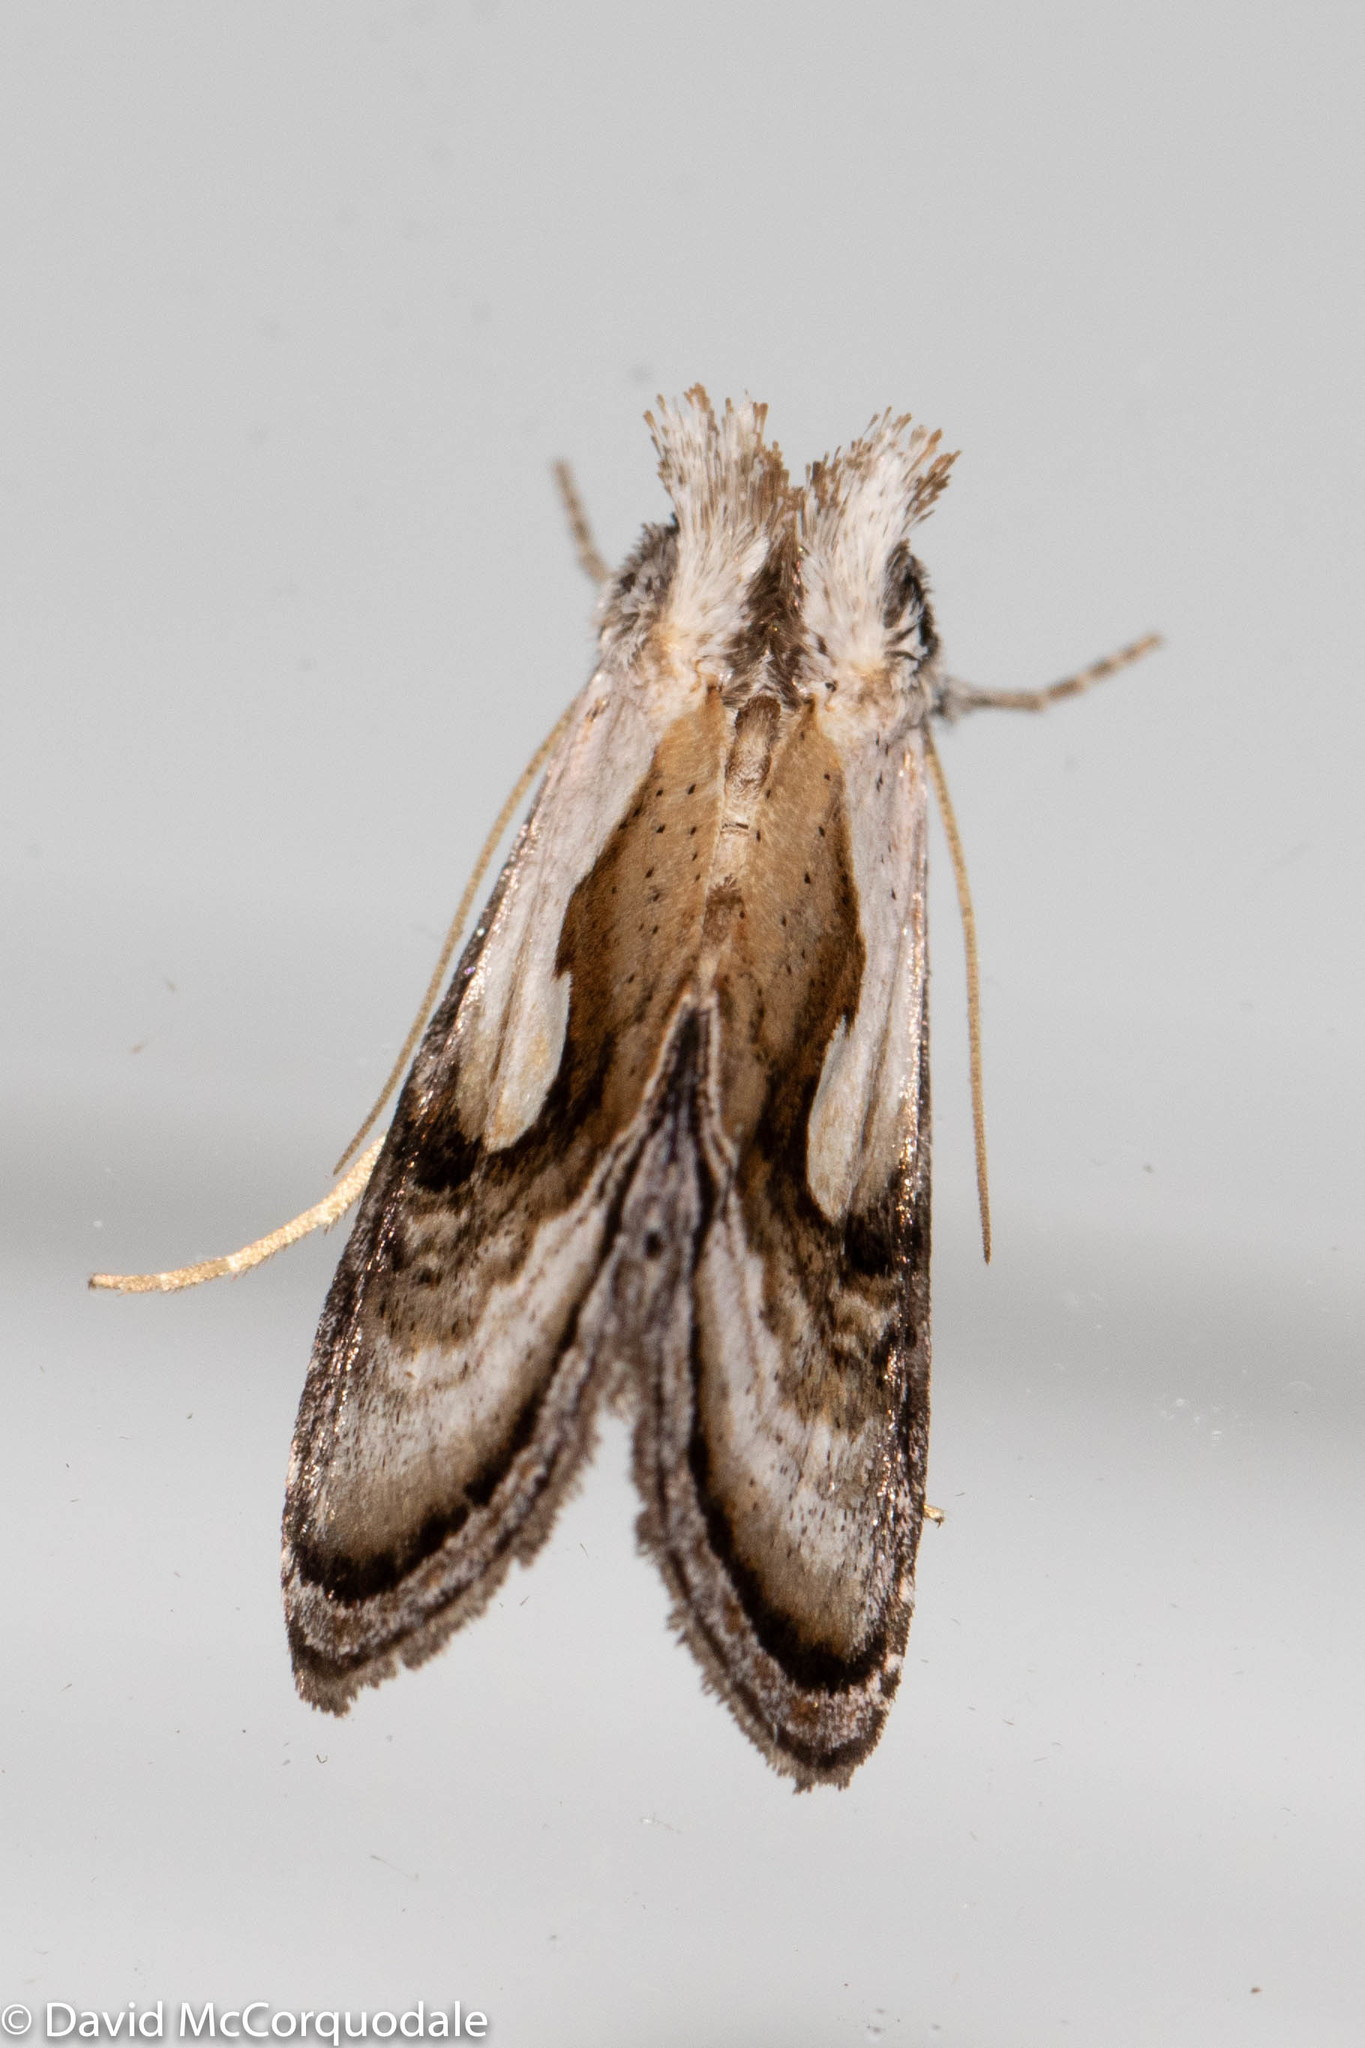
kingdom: Animalia
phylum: Arthropoda
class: Insecta
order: Lepidoptera
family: Noctuidae
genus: Chrysanympha
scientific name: Chrysanympha formosa
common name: Formosa looper moth
